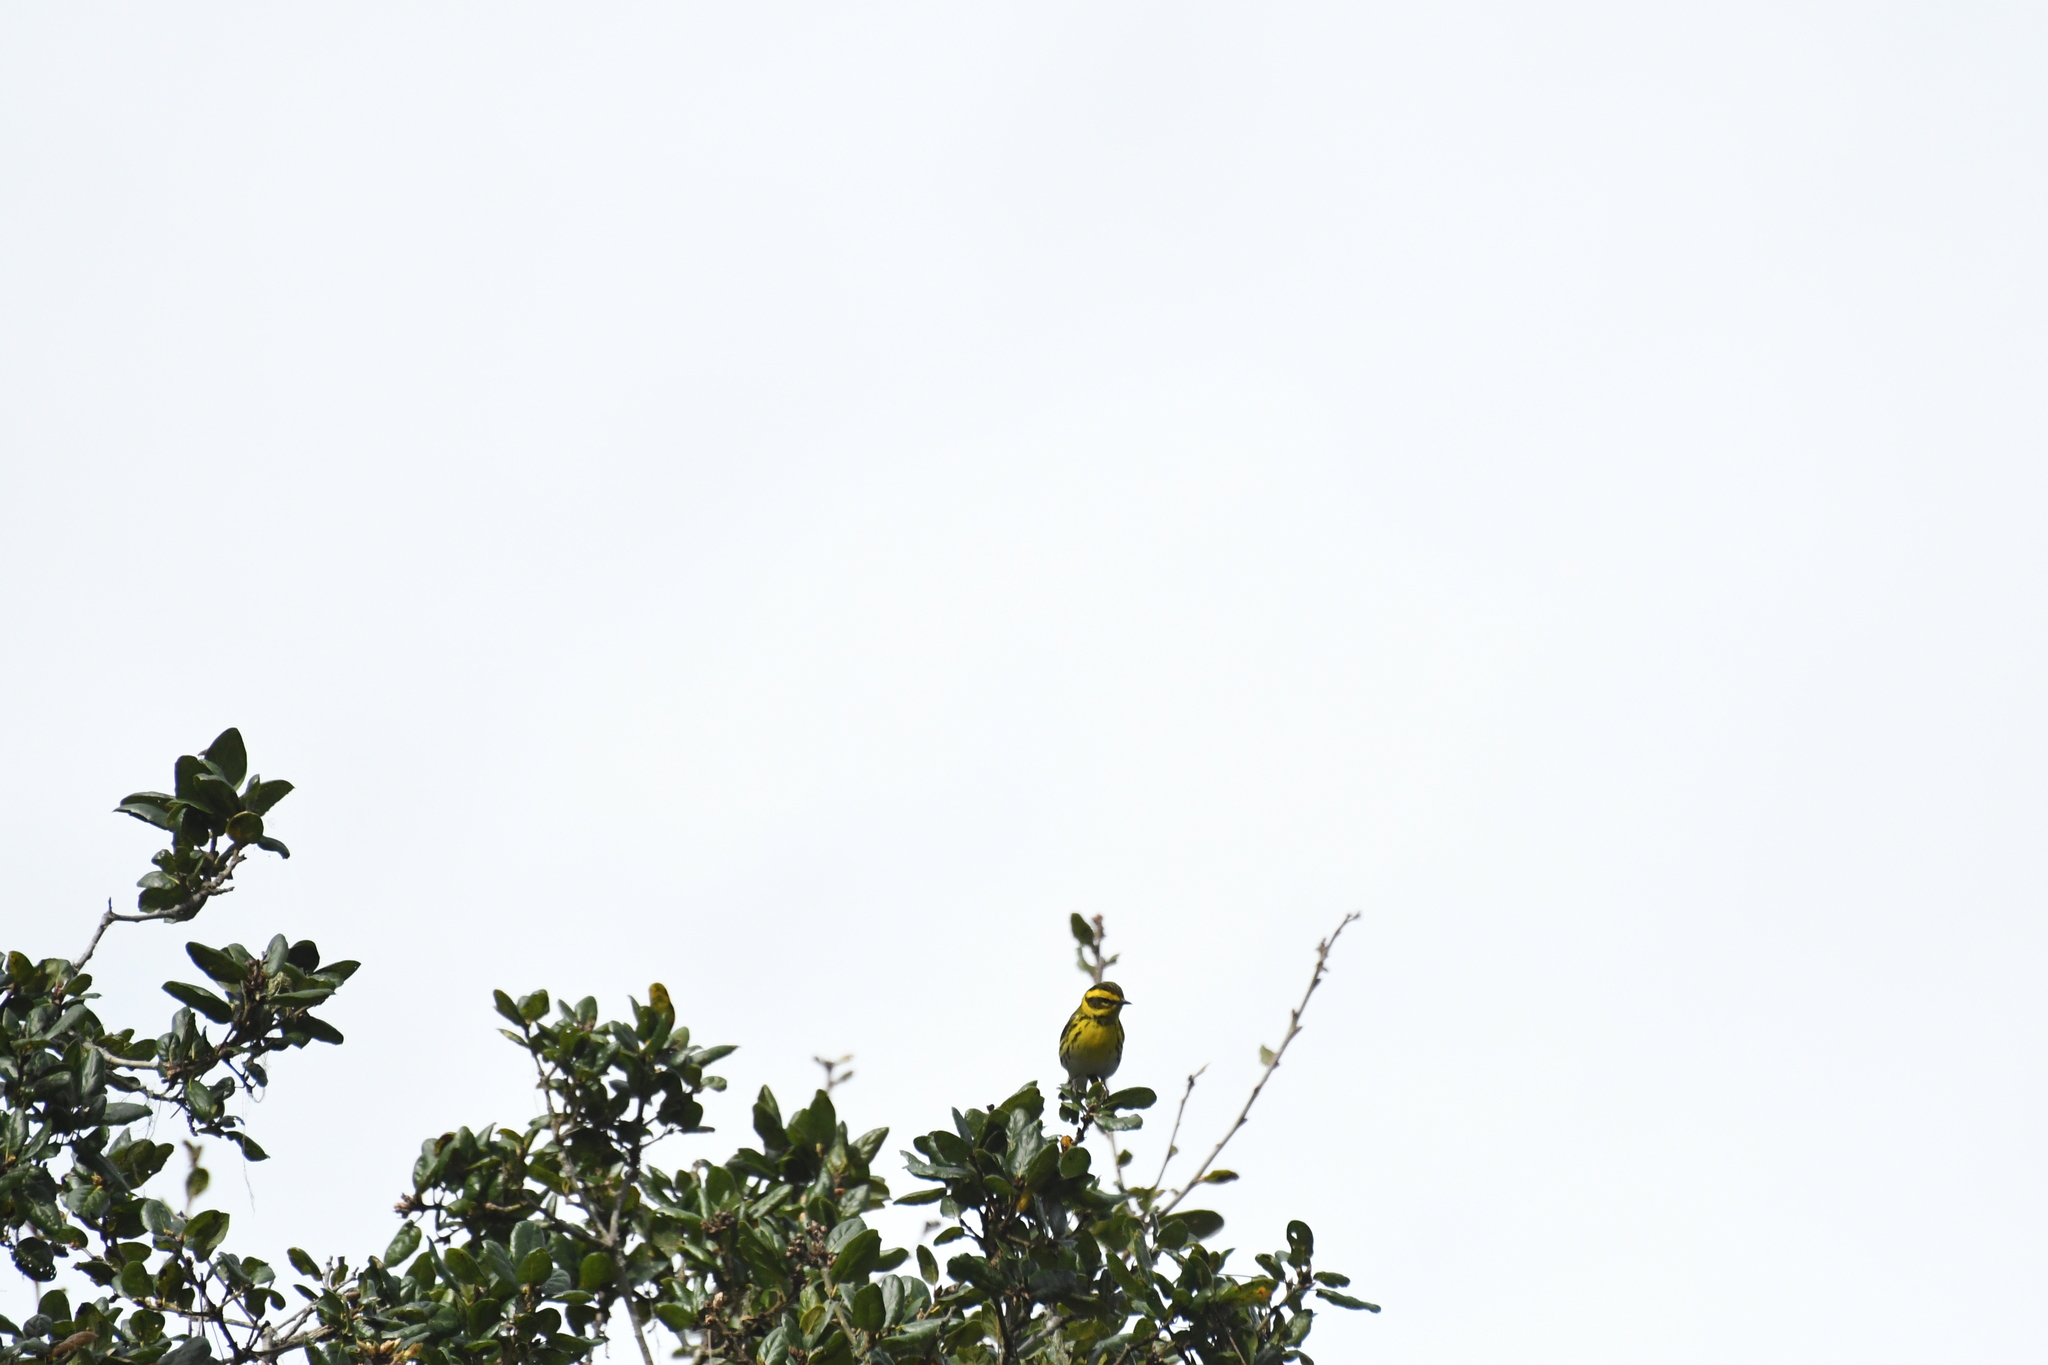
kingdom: Animalia
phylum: Chordata
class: Aves
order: Passeriformes
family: Parulidae
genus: Setophaga
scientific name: Setophaga townsendi
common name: Townsend's warbler
